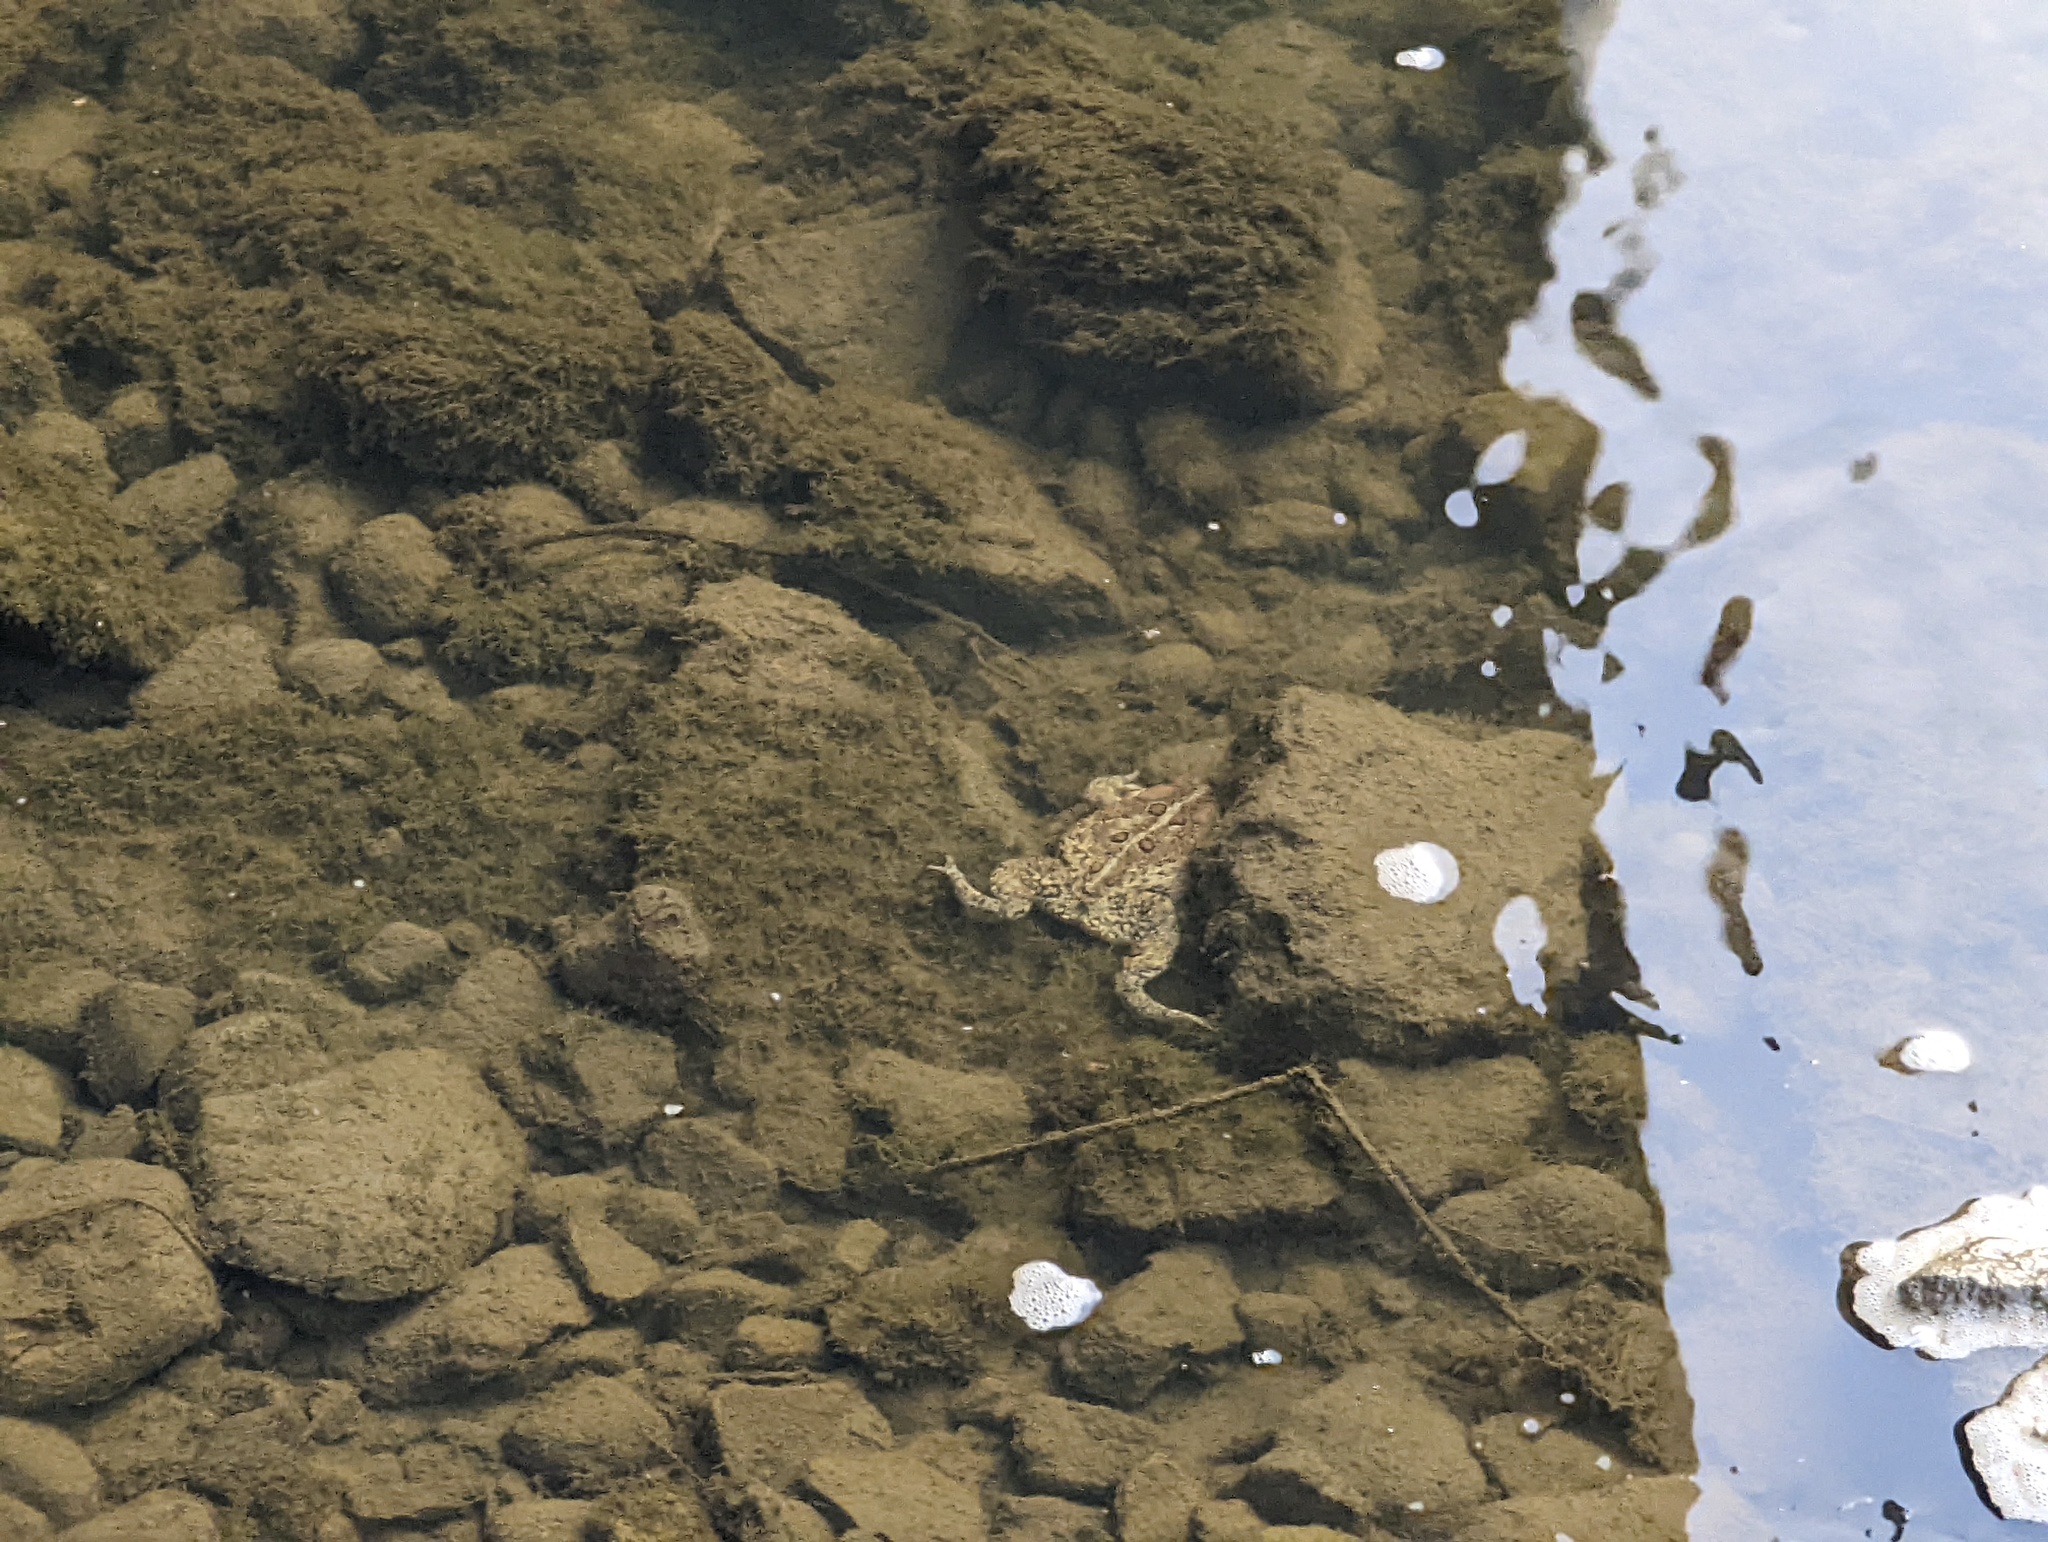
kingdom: Animalia
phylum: Chordata
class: Amphibia
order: Anura
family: Bufonidae
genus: Anaxyrus
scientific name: Anaxyrus americanus
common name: American toad
